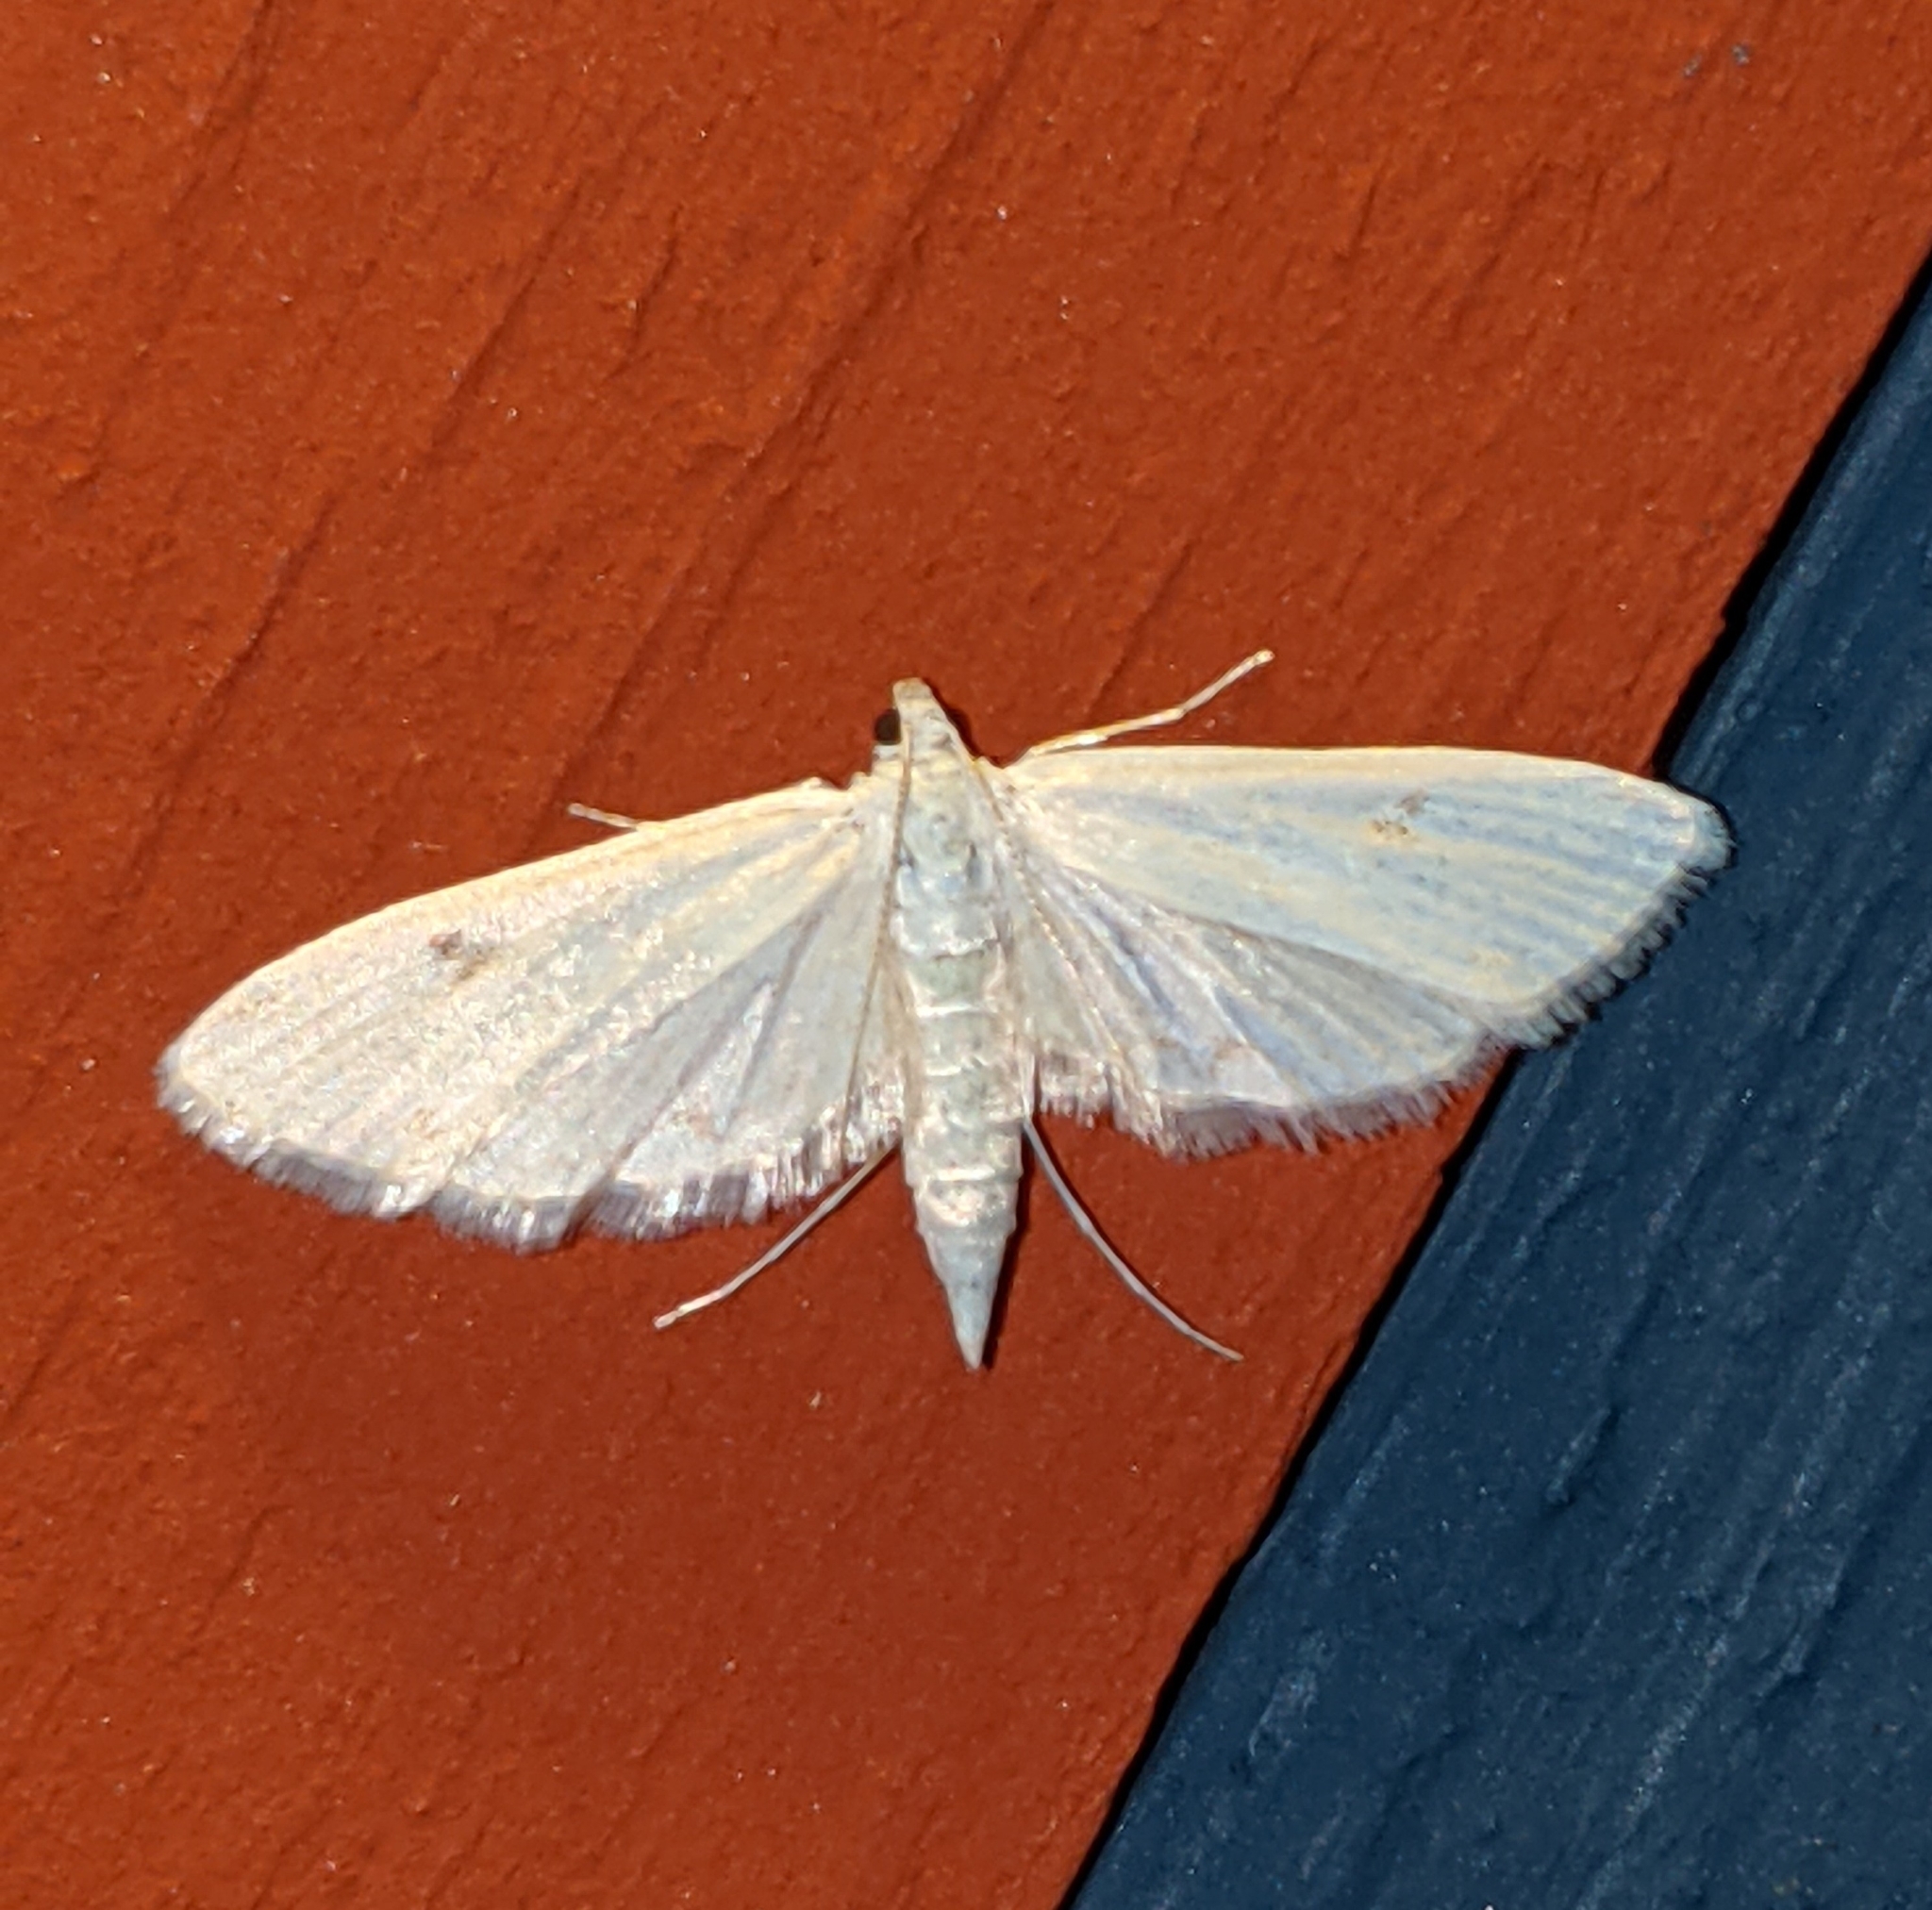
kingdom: Animalia
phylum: Arthropoda
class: Insecta
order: Lepidoptera
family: Crambidae
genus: Parapoynx
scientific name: Parapoynx allionealis
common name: Bladderwort casemaker
